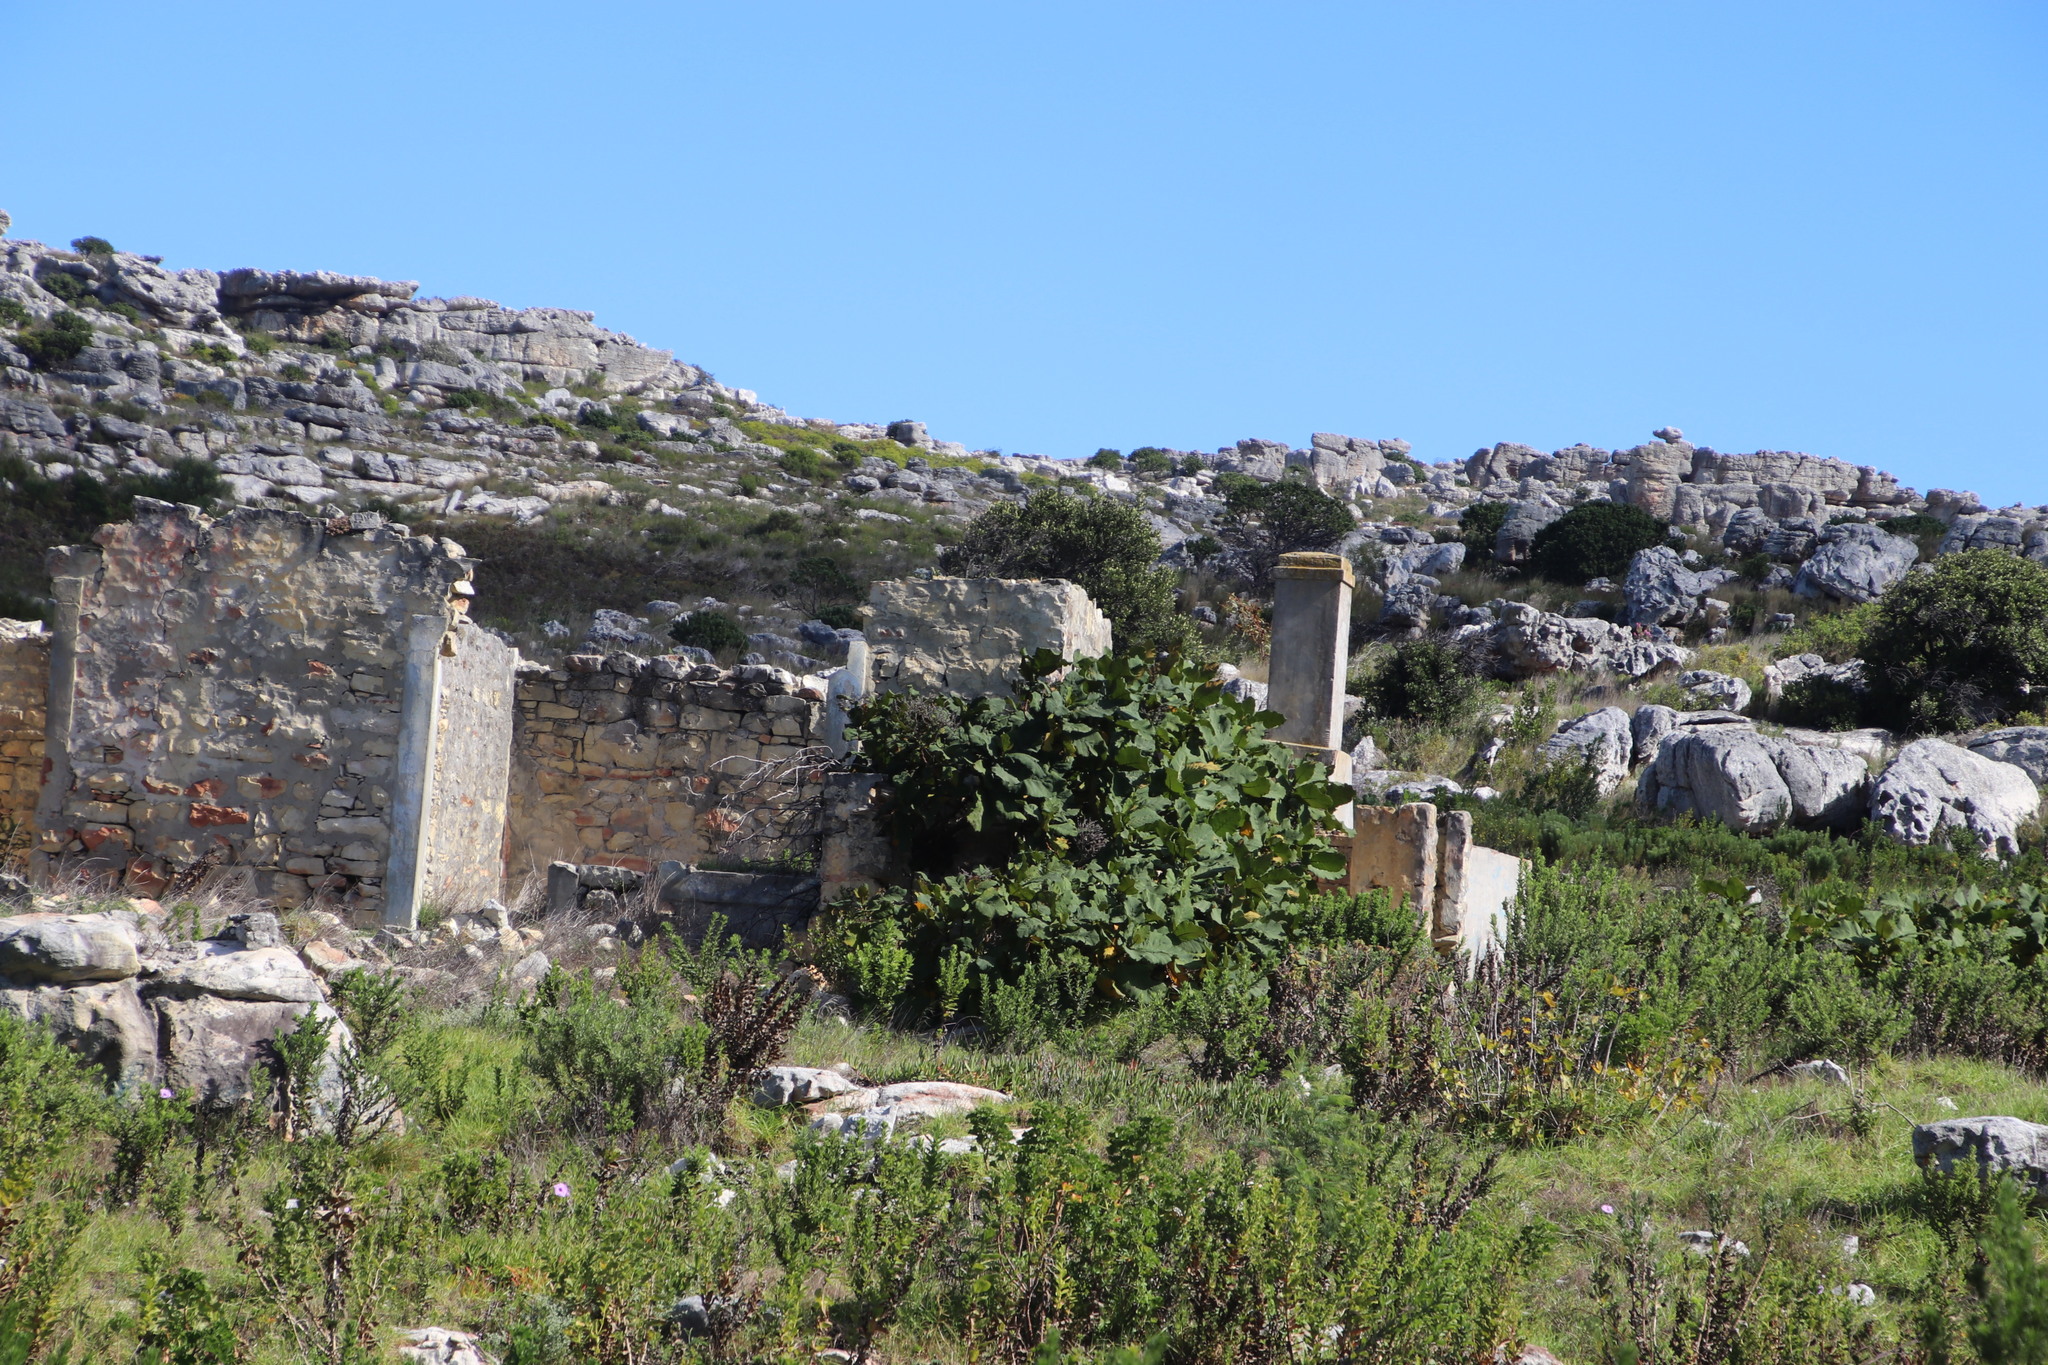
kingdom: Plantae
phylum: Tracheophyta
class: Magnoliopsida
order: Boraginales
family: Namaceae
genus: Wigandia
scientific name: Wigandia urens
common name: Caracus wigandia
